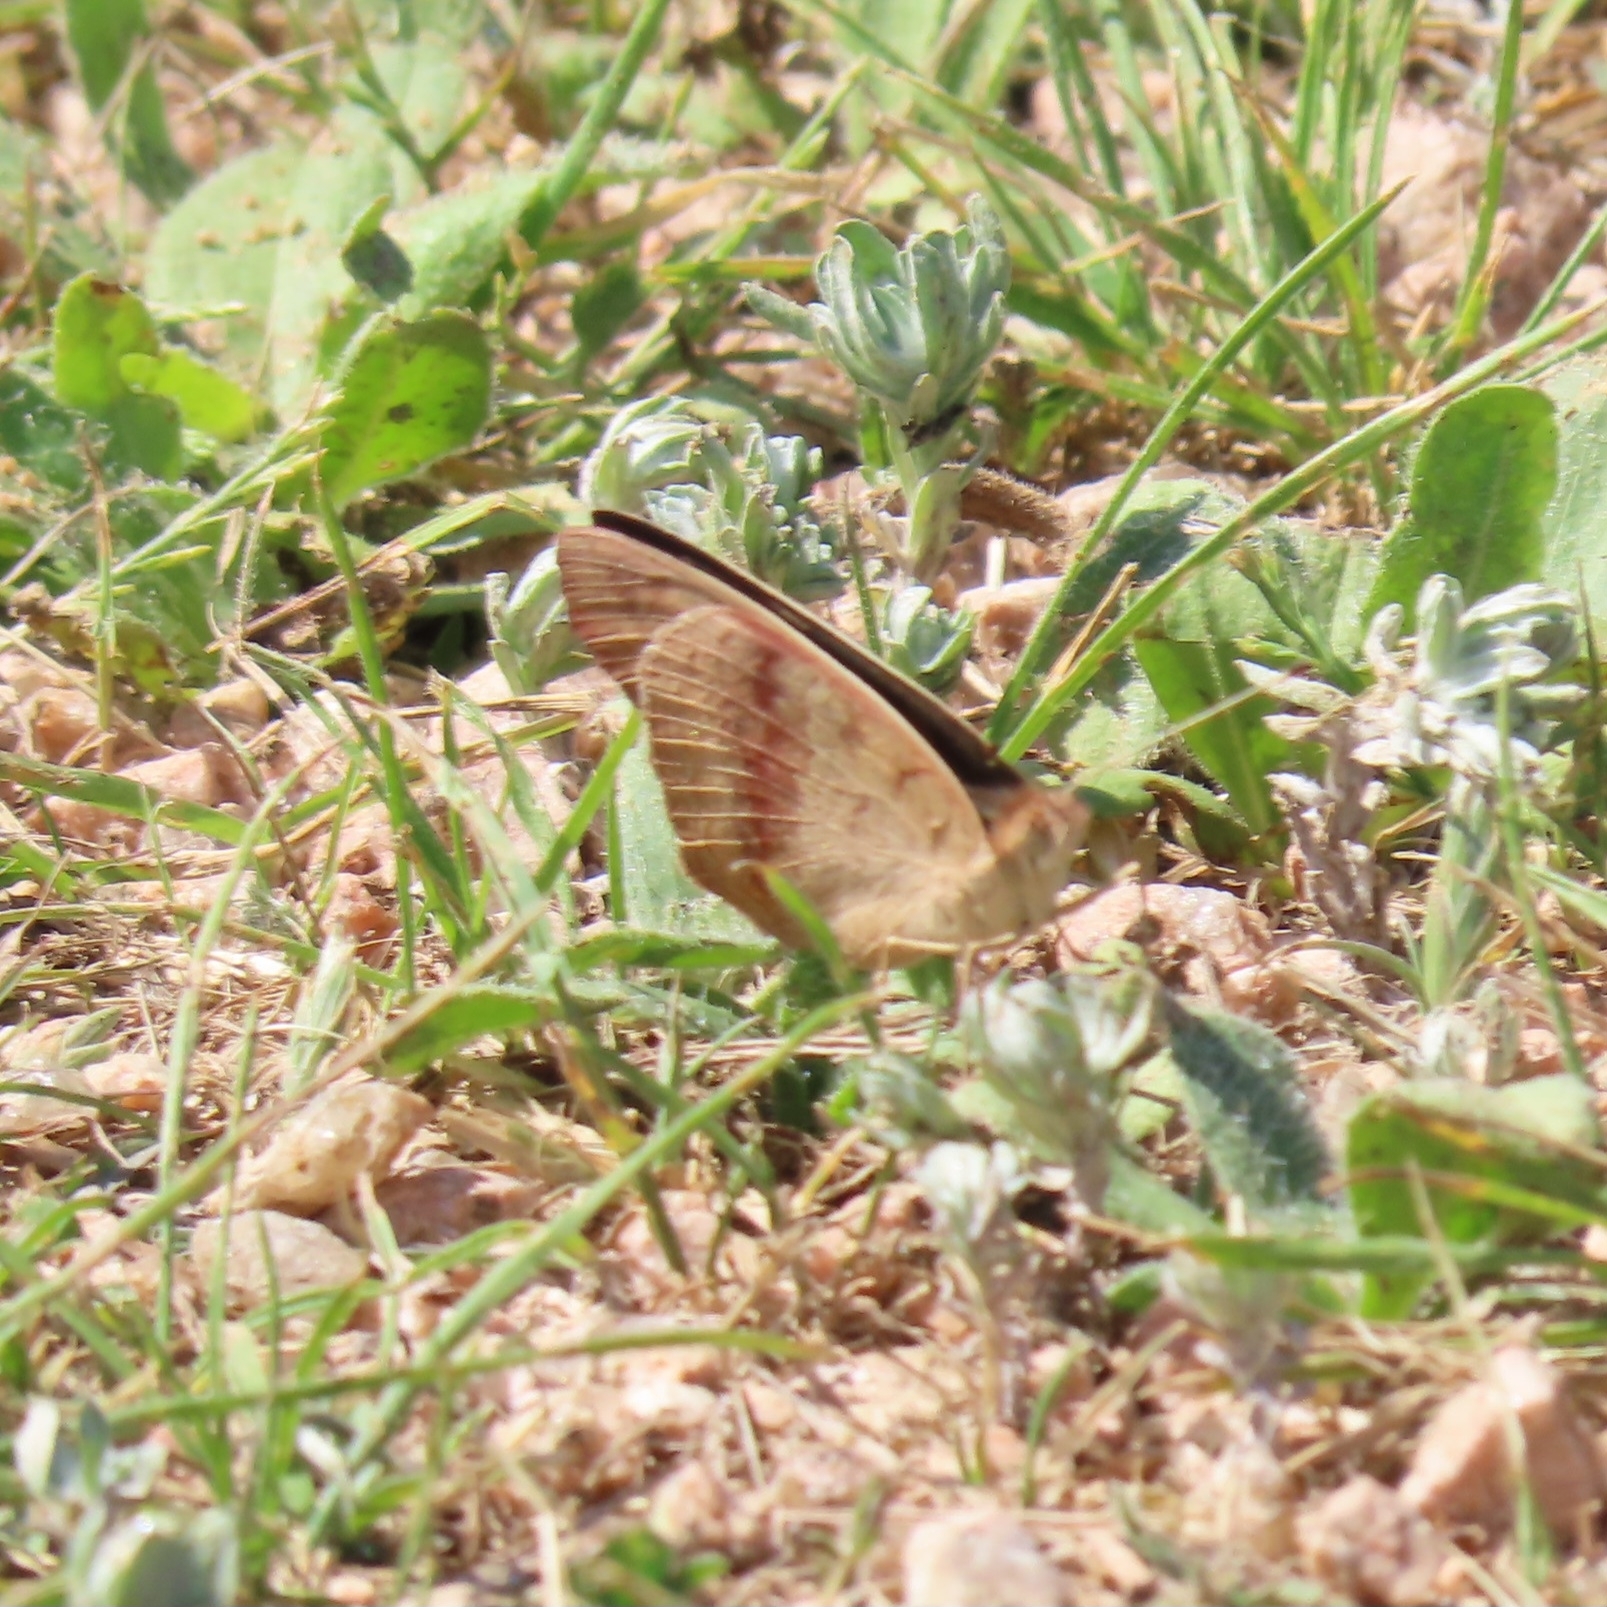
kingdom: Animalia
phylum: Arthropoda
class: Insecta
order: Lepidoptera
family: Nymphalidae
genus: Junonia
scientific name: Junonia coenia
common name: Common buckeye
